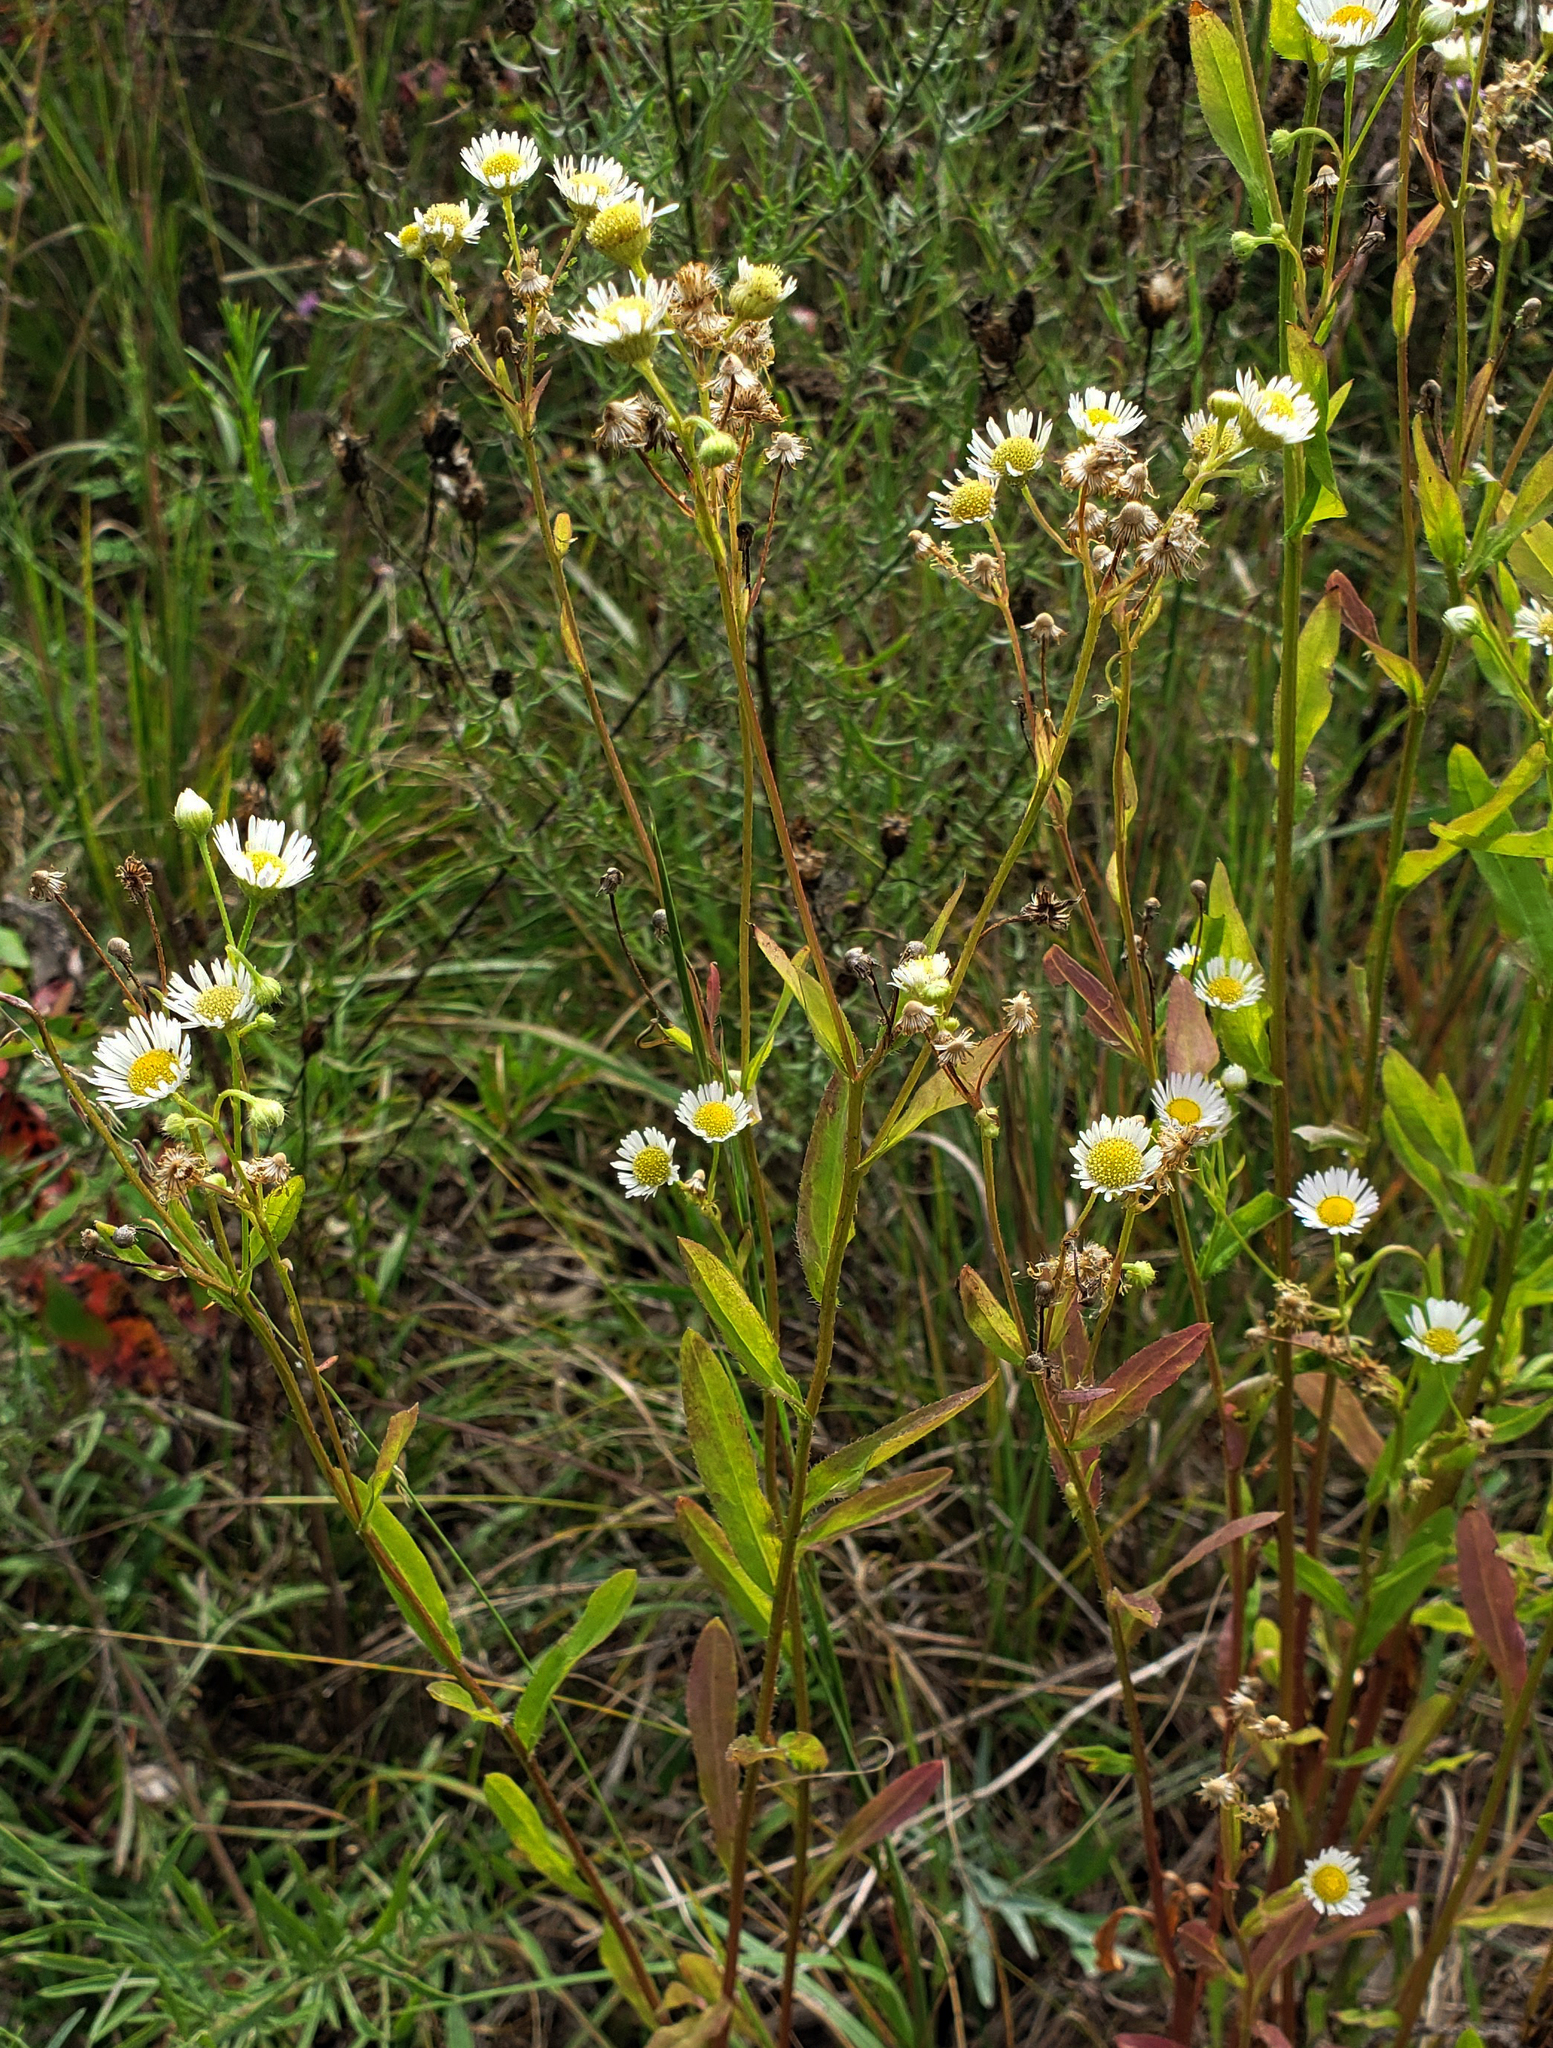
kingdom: Plantae
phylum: Tracheophyta
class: Magnoliopsida
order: Asterales
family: Asteraceae
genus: Erigeron
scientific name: Erigeron strigosus
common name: Common eastern fleabane
